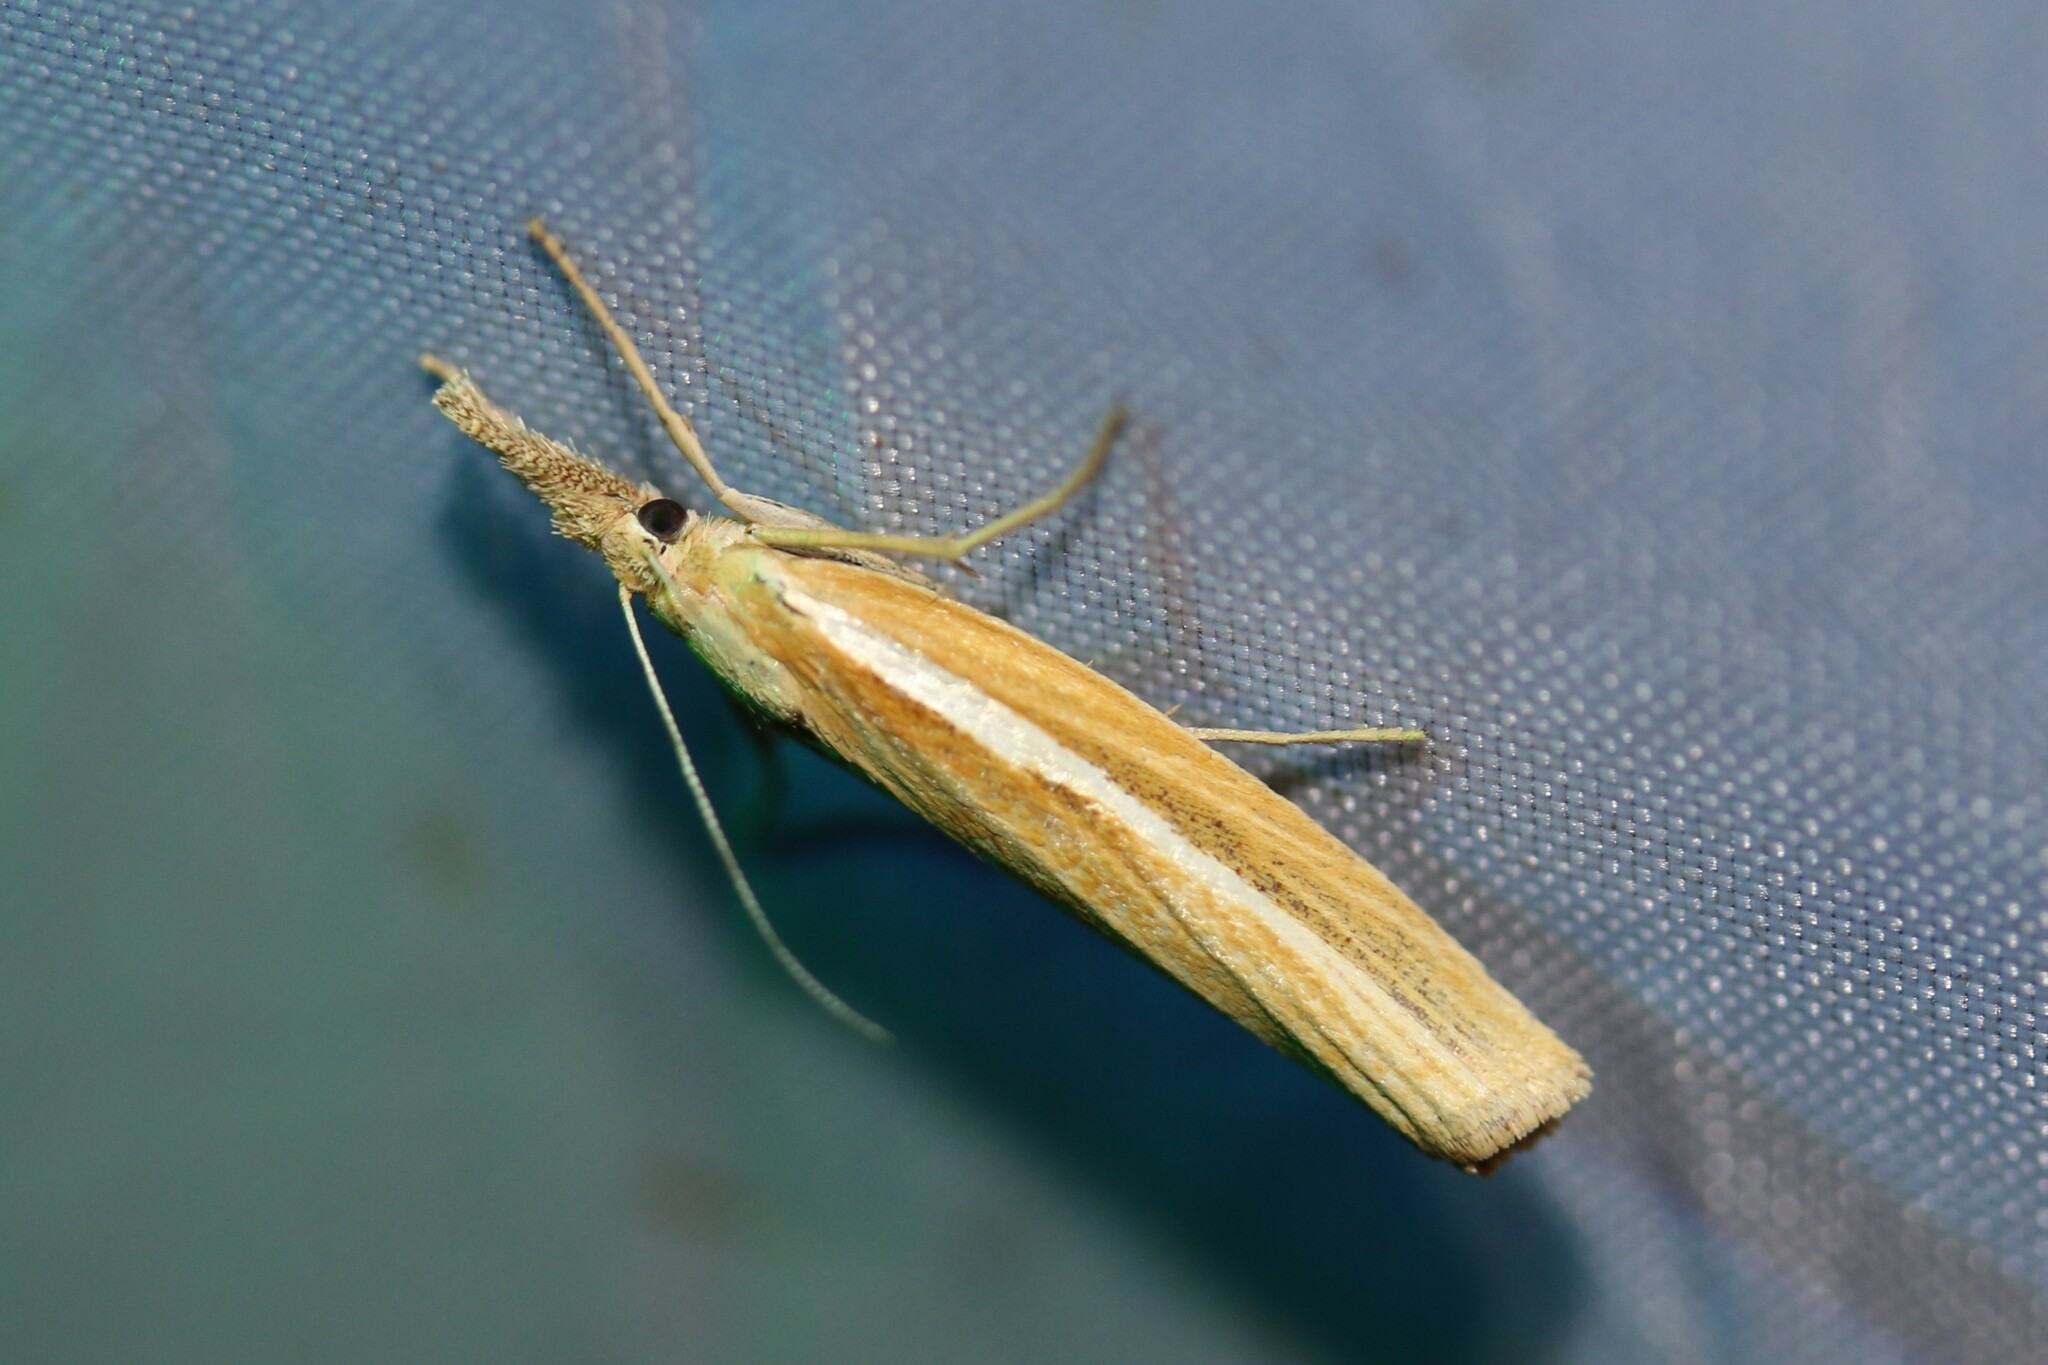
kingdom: Animalia
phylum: Arthropoda
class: Insecta
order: Lepidoptera
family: Crambidae
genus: Agriphila
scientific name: Agriphila selasella
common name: Pale-streak grass-veneer
